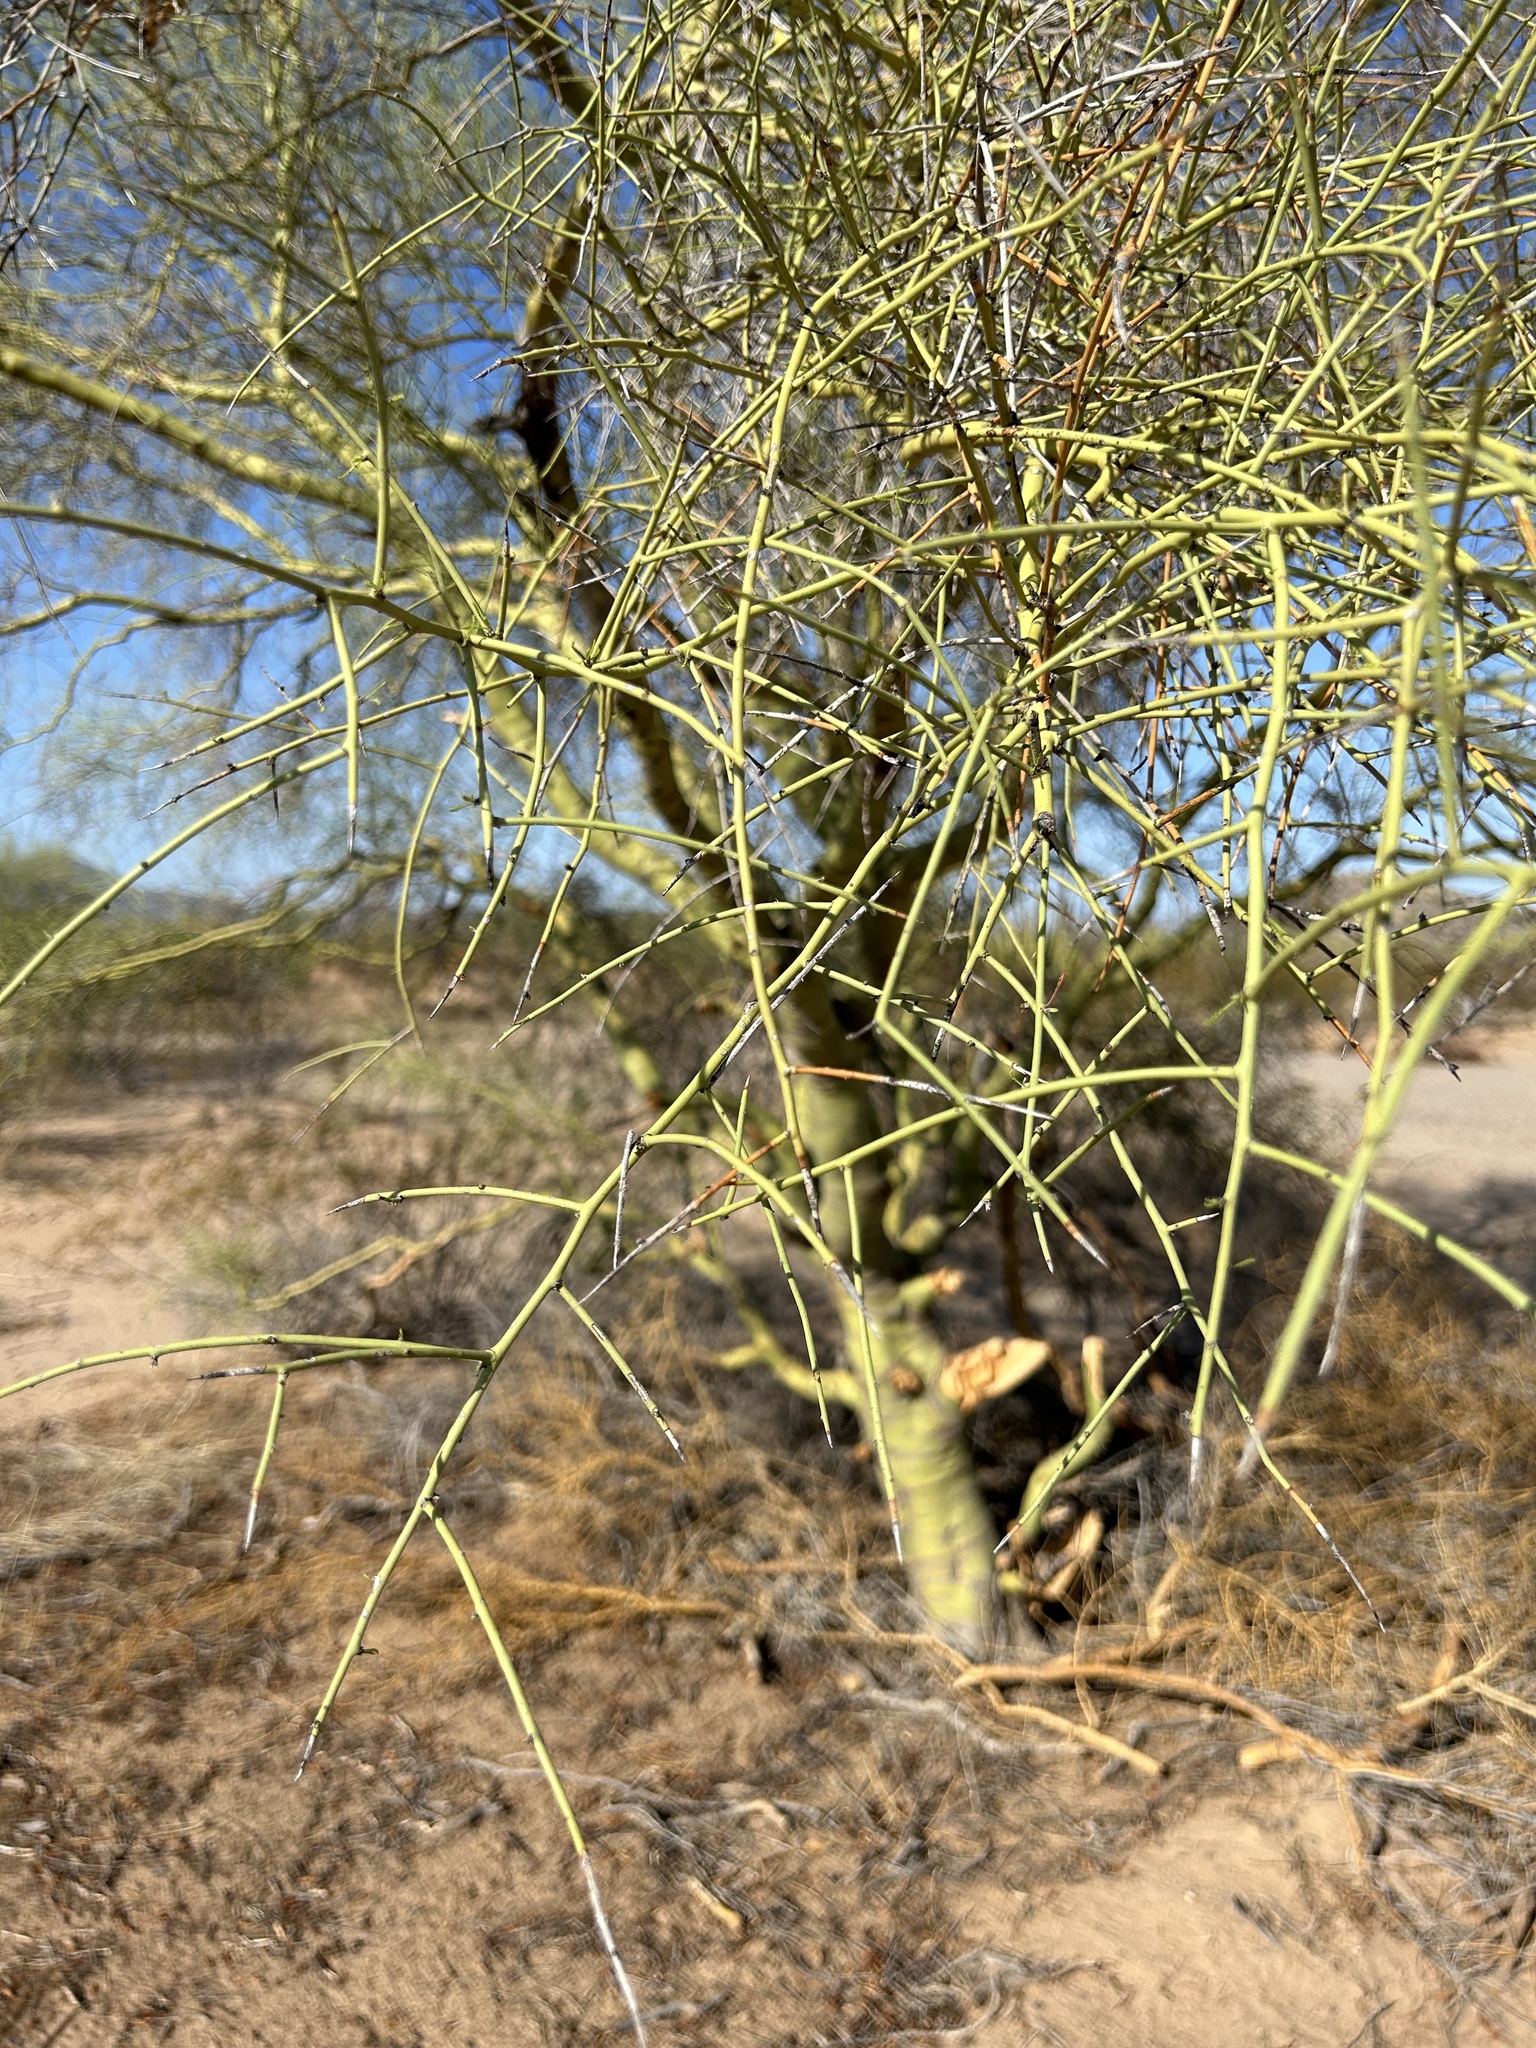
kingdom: Plantae
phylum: Tracheophyta
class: Magnoliopsida
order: Fabales
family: Fabaceae
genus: Parkinsonia
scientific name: Parkinsonia microphylla
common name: Yellow paloverde
